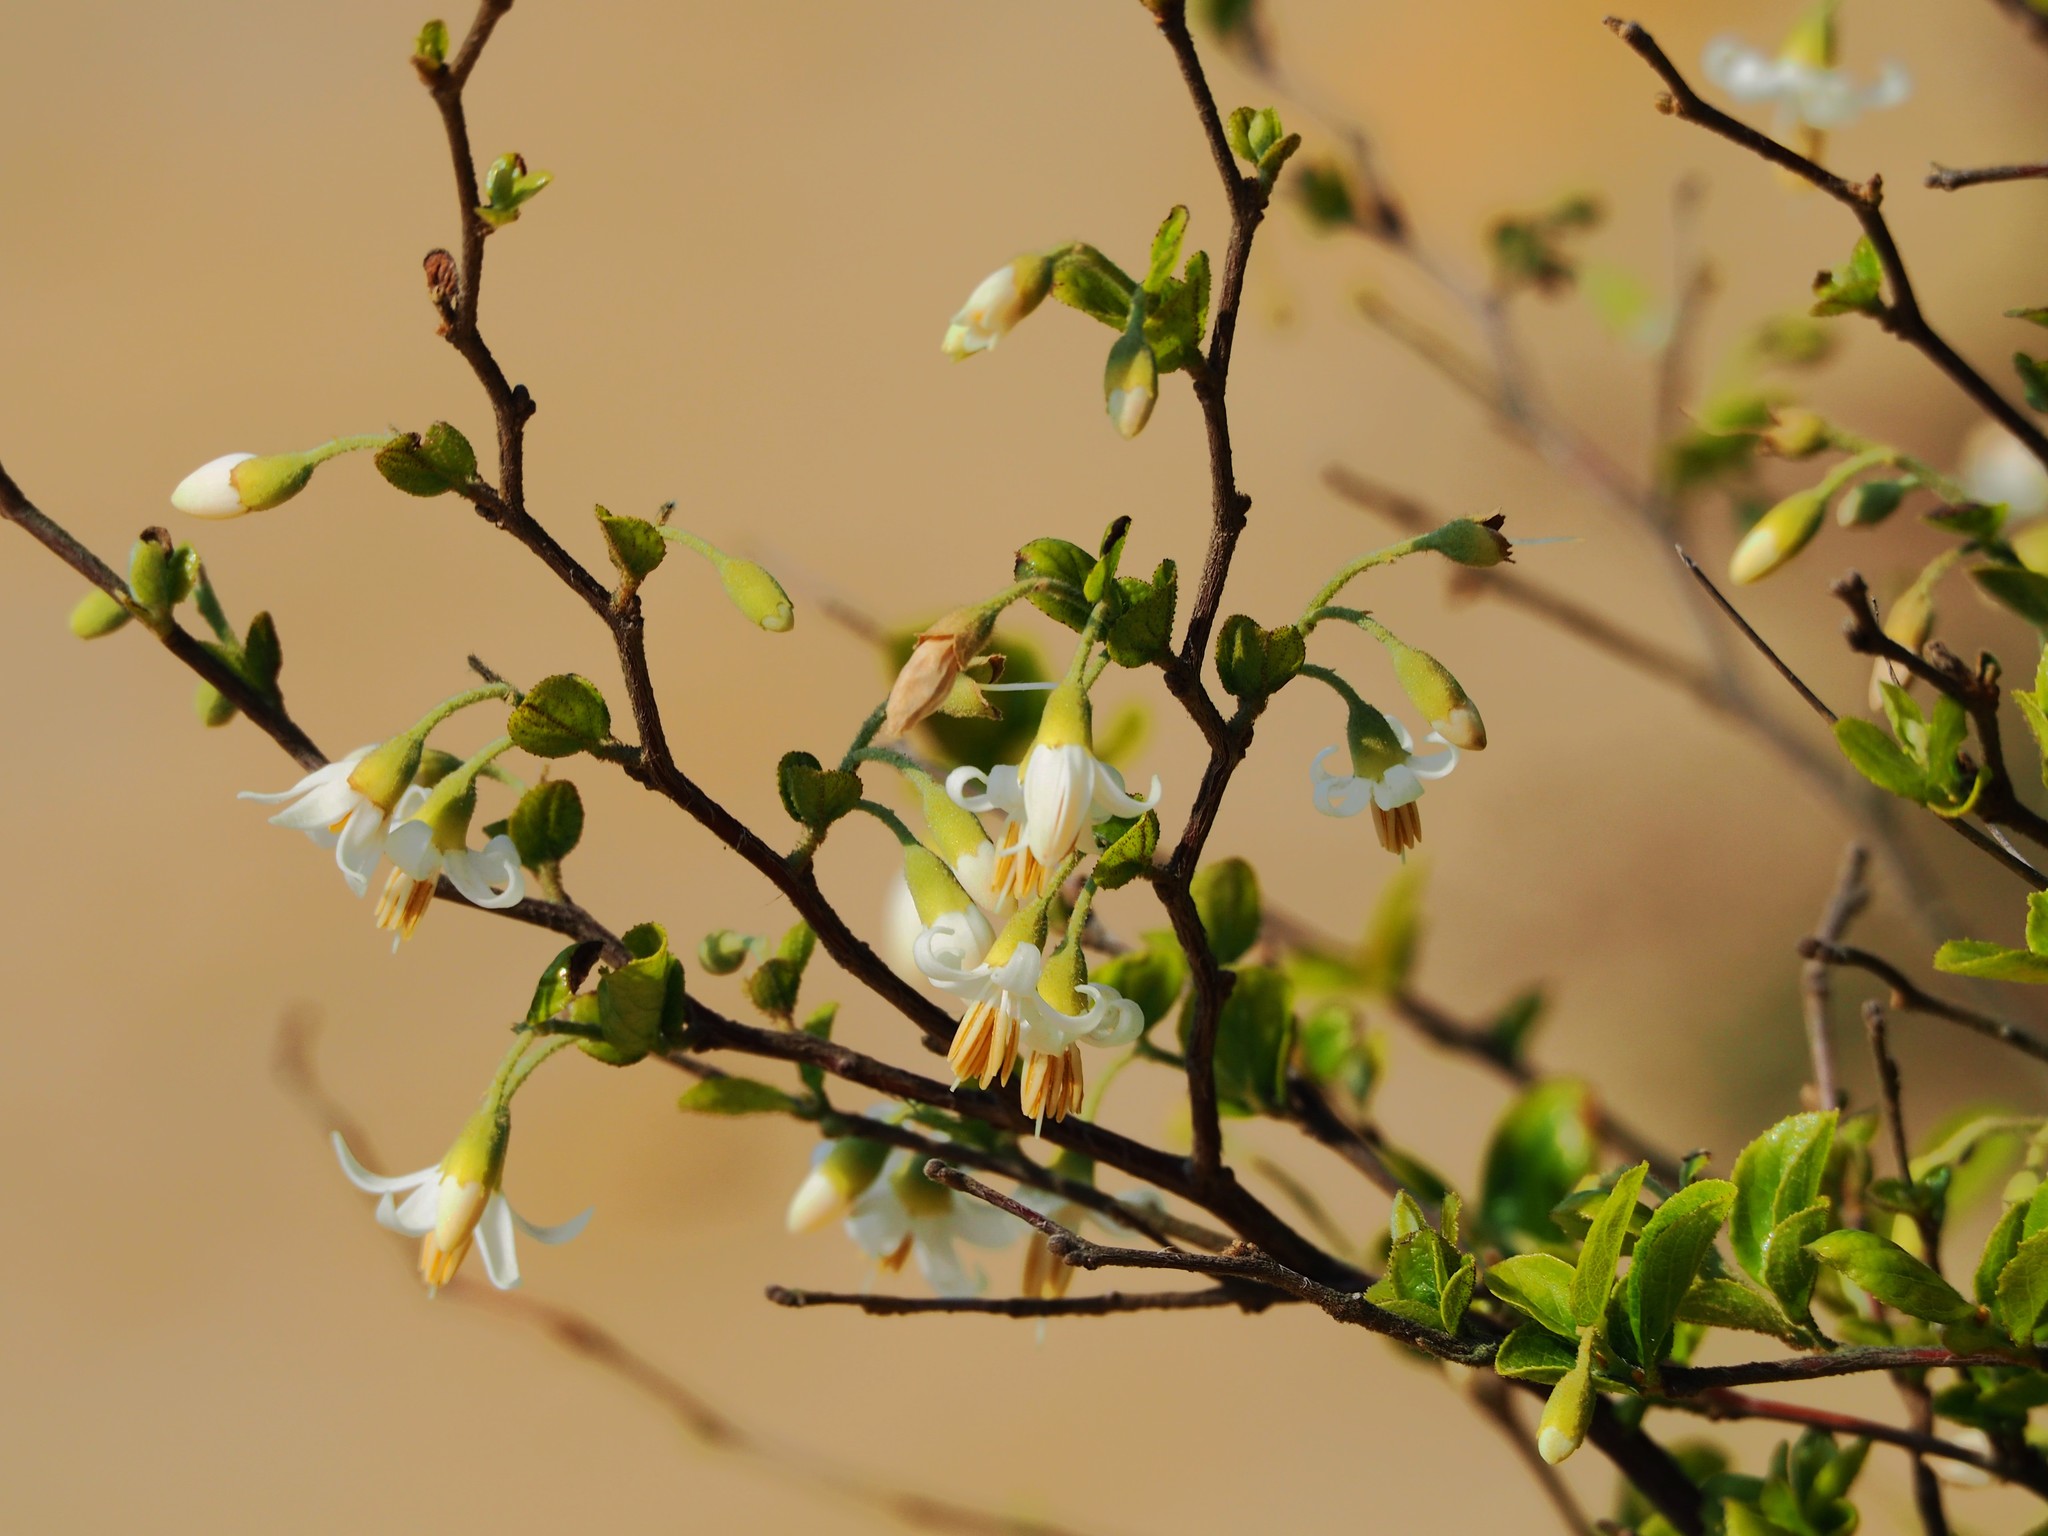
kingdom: Plantae
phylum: Tracheophyta
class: Magnoliopsida
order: Ericales
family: Styracaceae
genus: Styrax
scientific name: Styrax faberi
